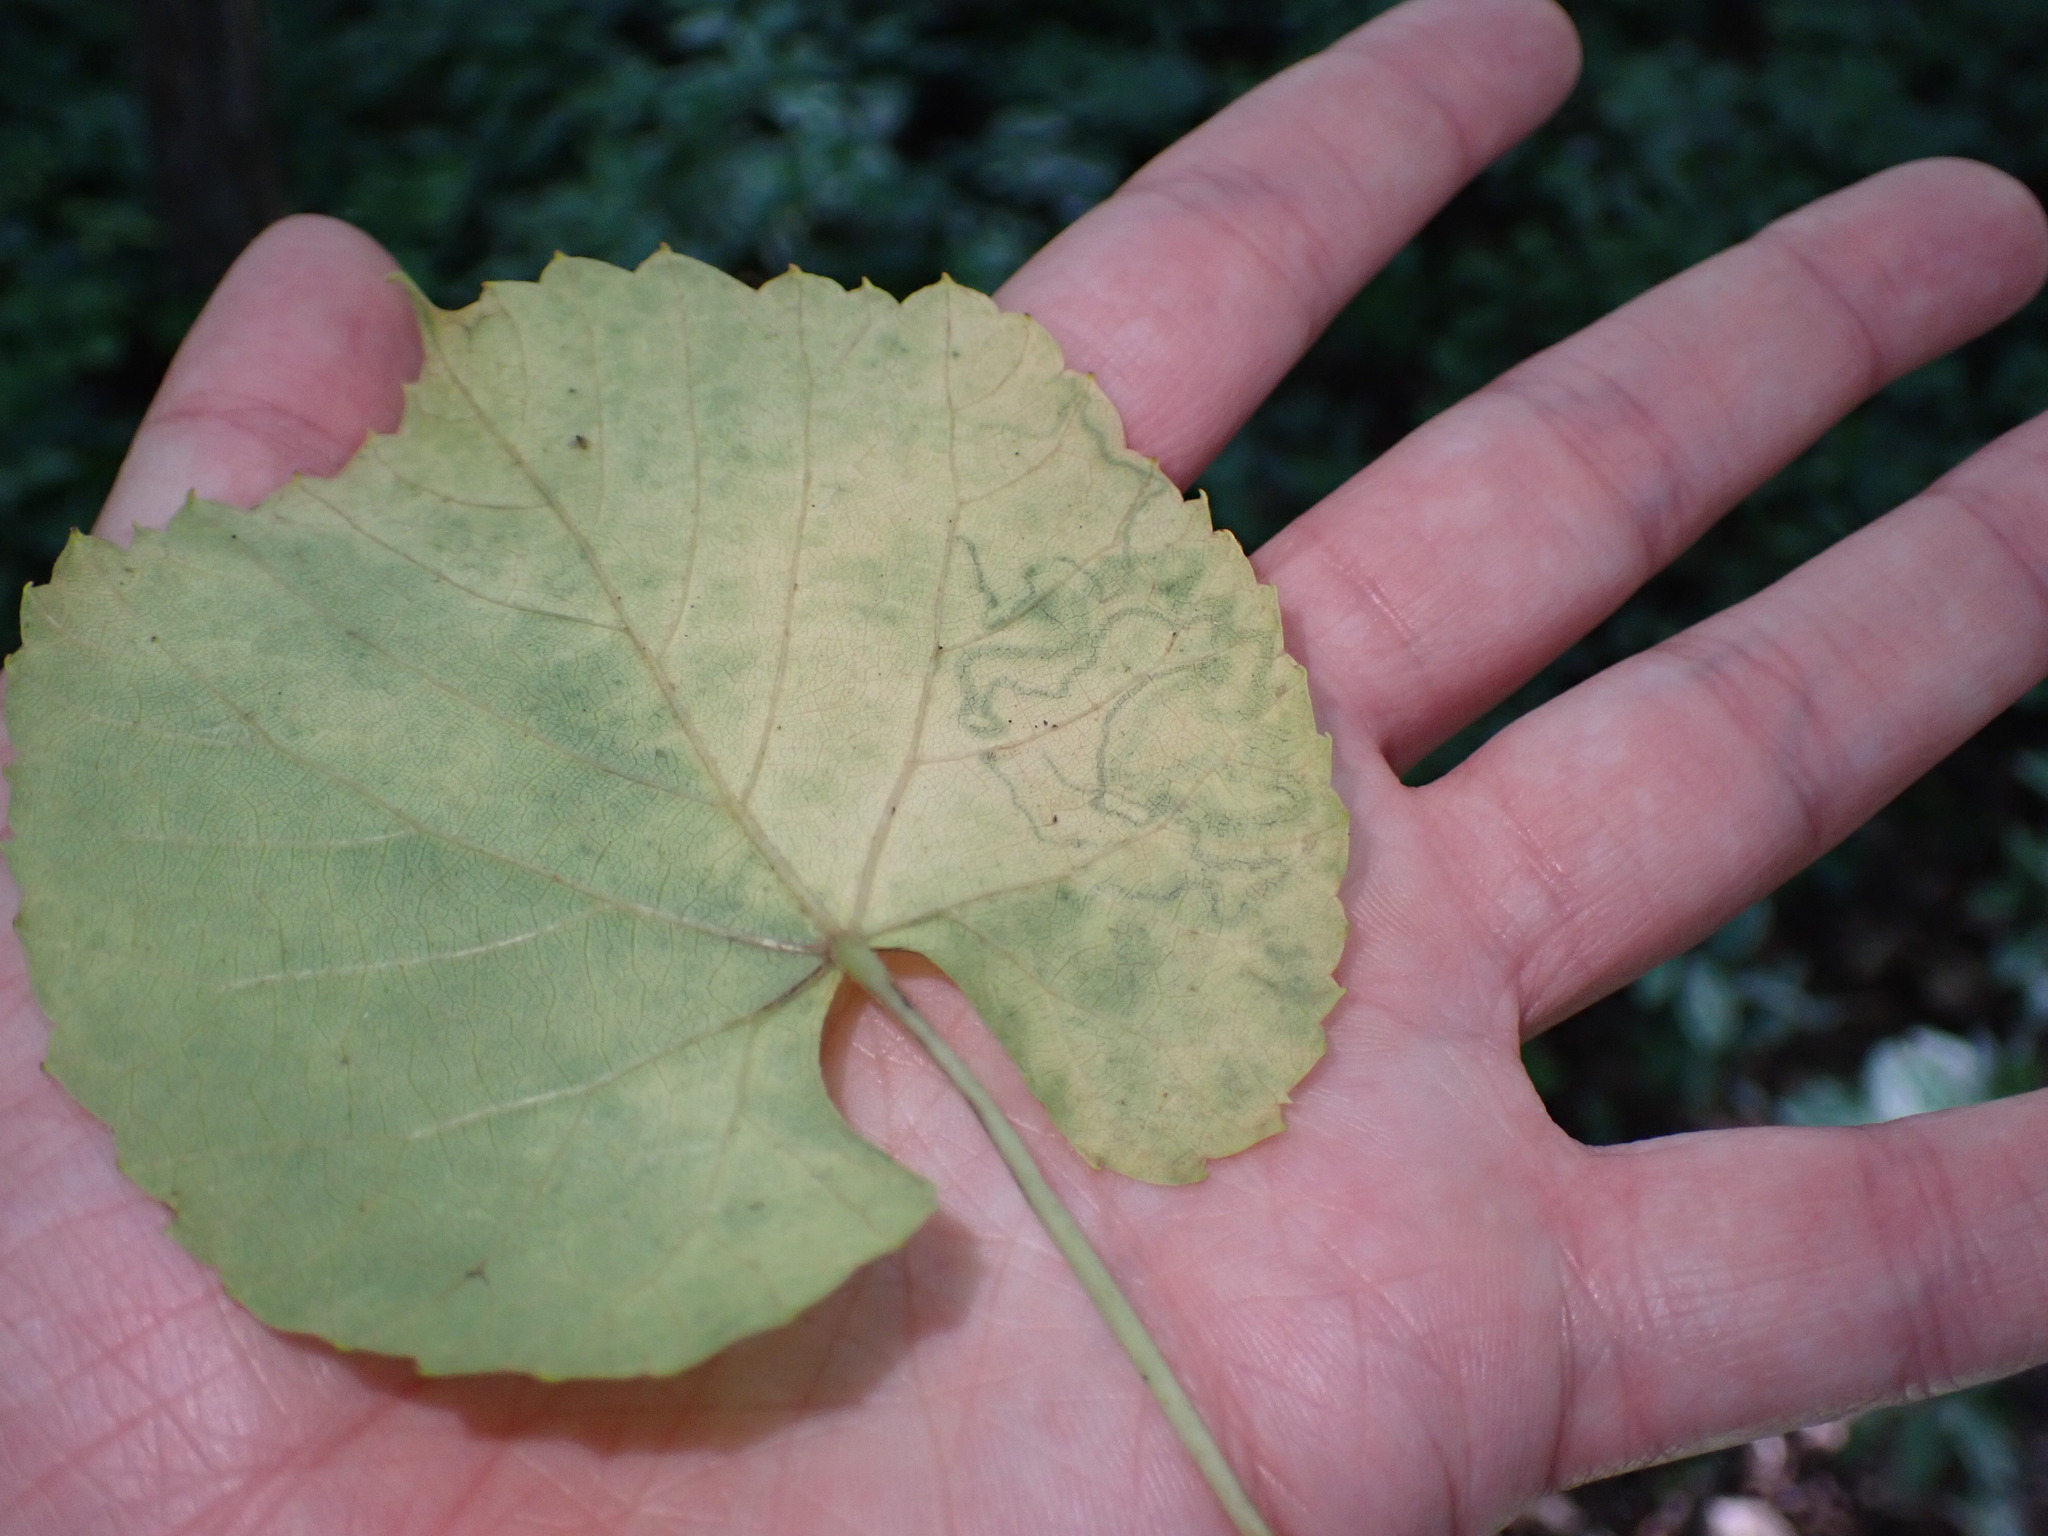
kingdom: Animalia
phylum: Arthropoda
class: Insecta
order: Lepidoptera
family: Gracillariidae
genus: Phyllocnistis
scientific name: Phyllocnistis vitifoliella
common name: Grape leaf-miner moth
